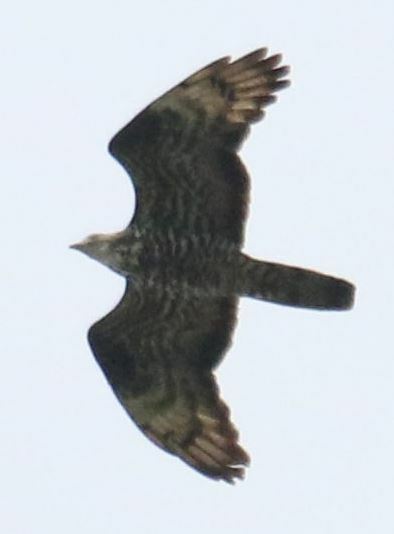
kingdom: Animalia
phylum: Chordata
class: Aves
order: Accipitriformes
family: Accipitridae
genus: Pernis
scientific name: Pernis apivorus
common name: European honey buzzard
